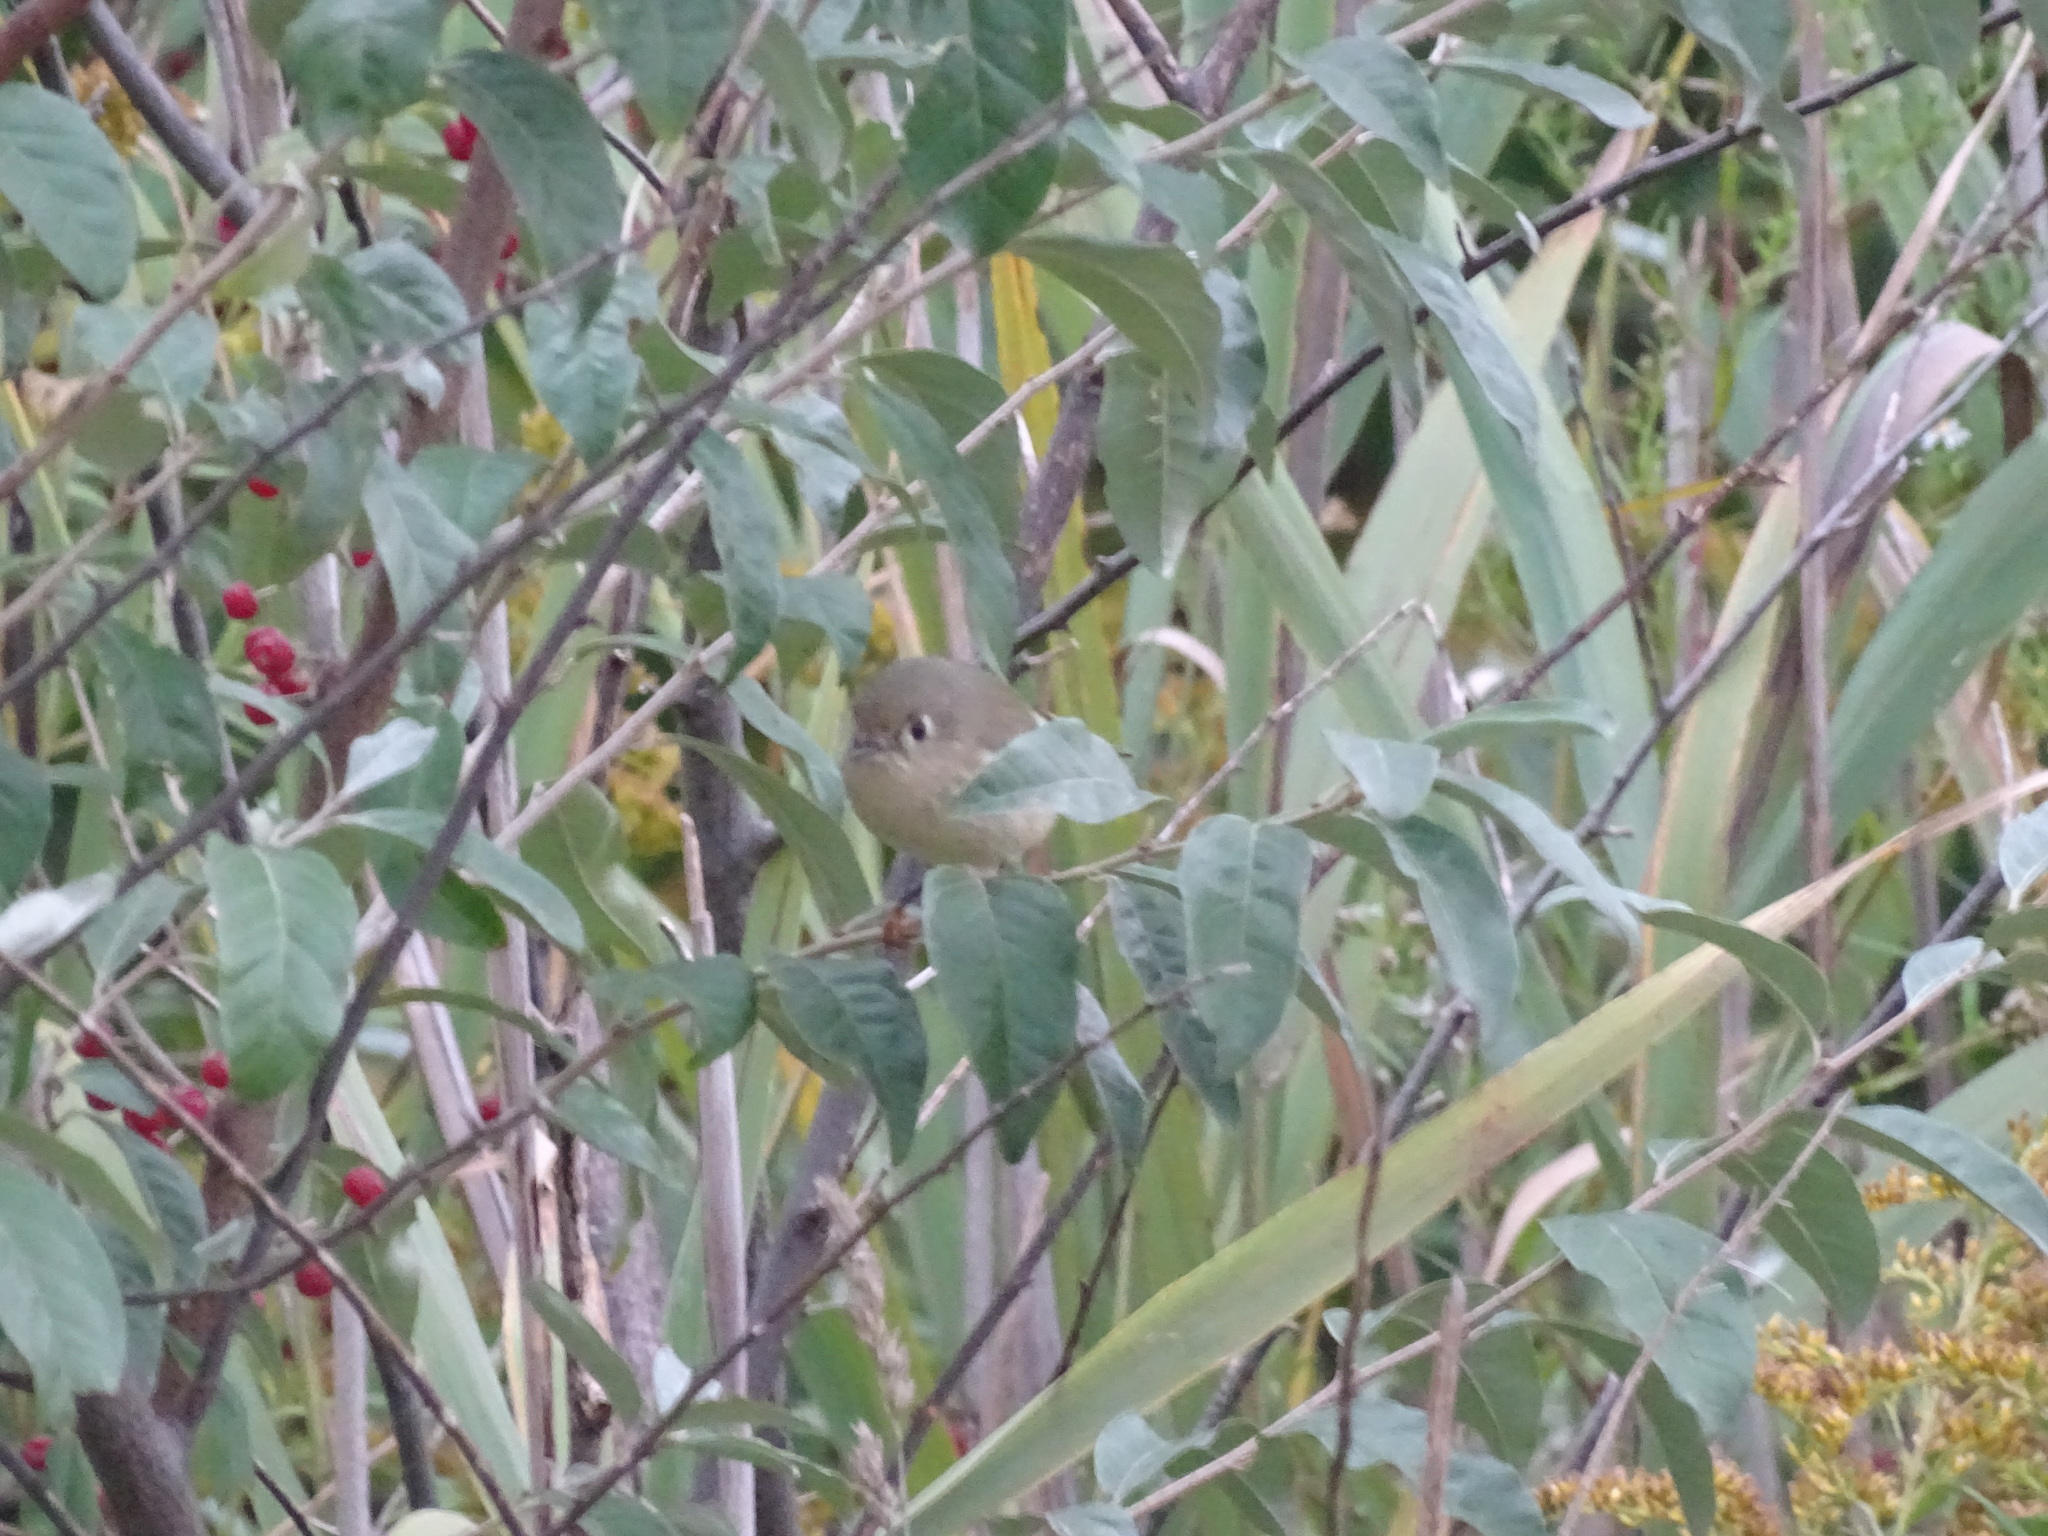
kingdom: Animalia
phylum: Chordata
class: Aves
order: Passeriformes
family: Regulidae
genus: Regulus
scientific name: Regulus calendula
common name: Ruby-crowned kinglet
